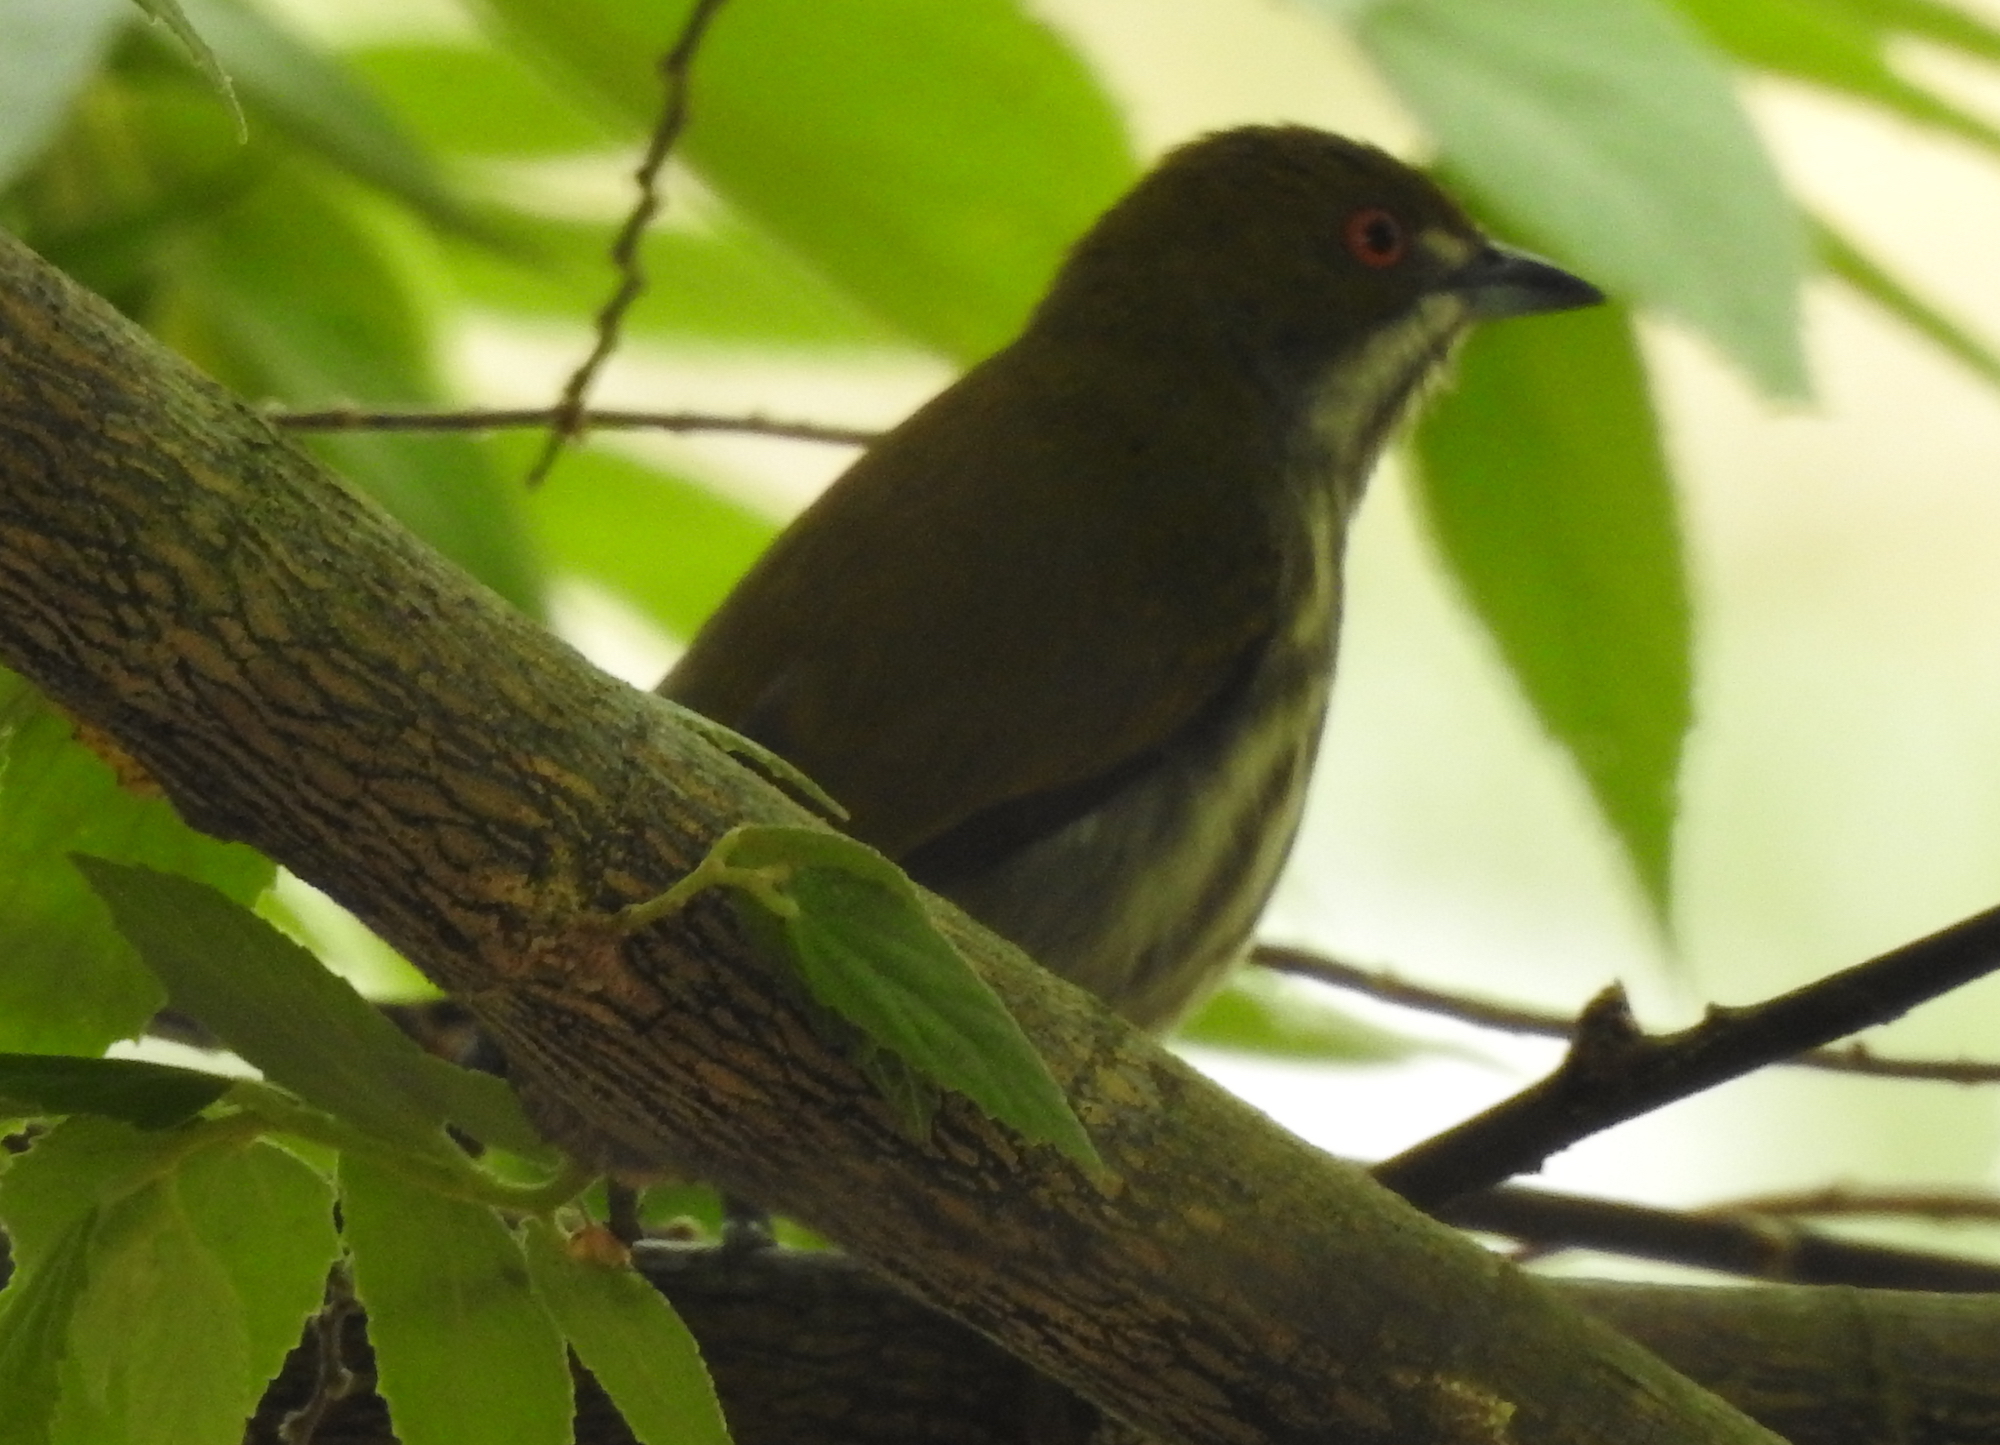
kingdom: Animalia
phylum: Chordata
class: Aves
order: Passeriformes
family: Dicaeidae
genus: Dicaeum
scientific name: Dicaeum chrysorrheum
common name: Yellow-vented flowerpecker
